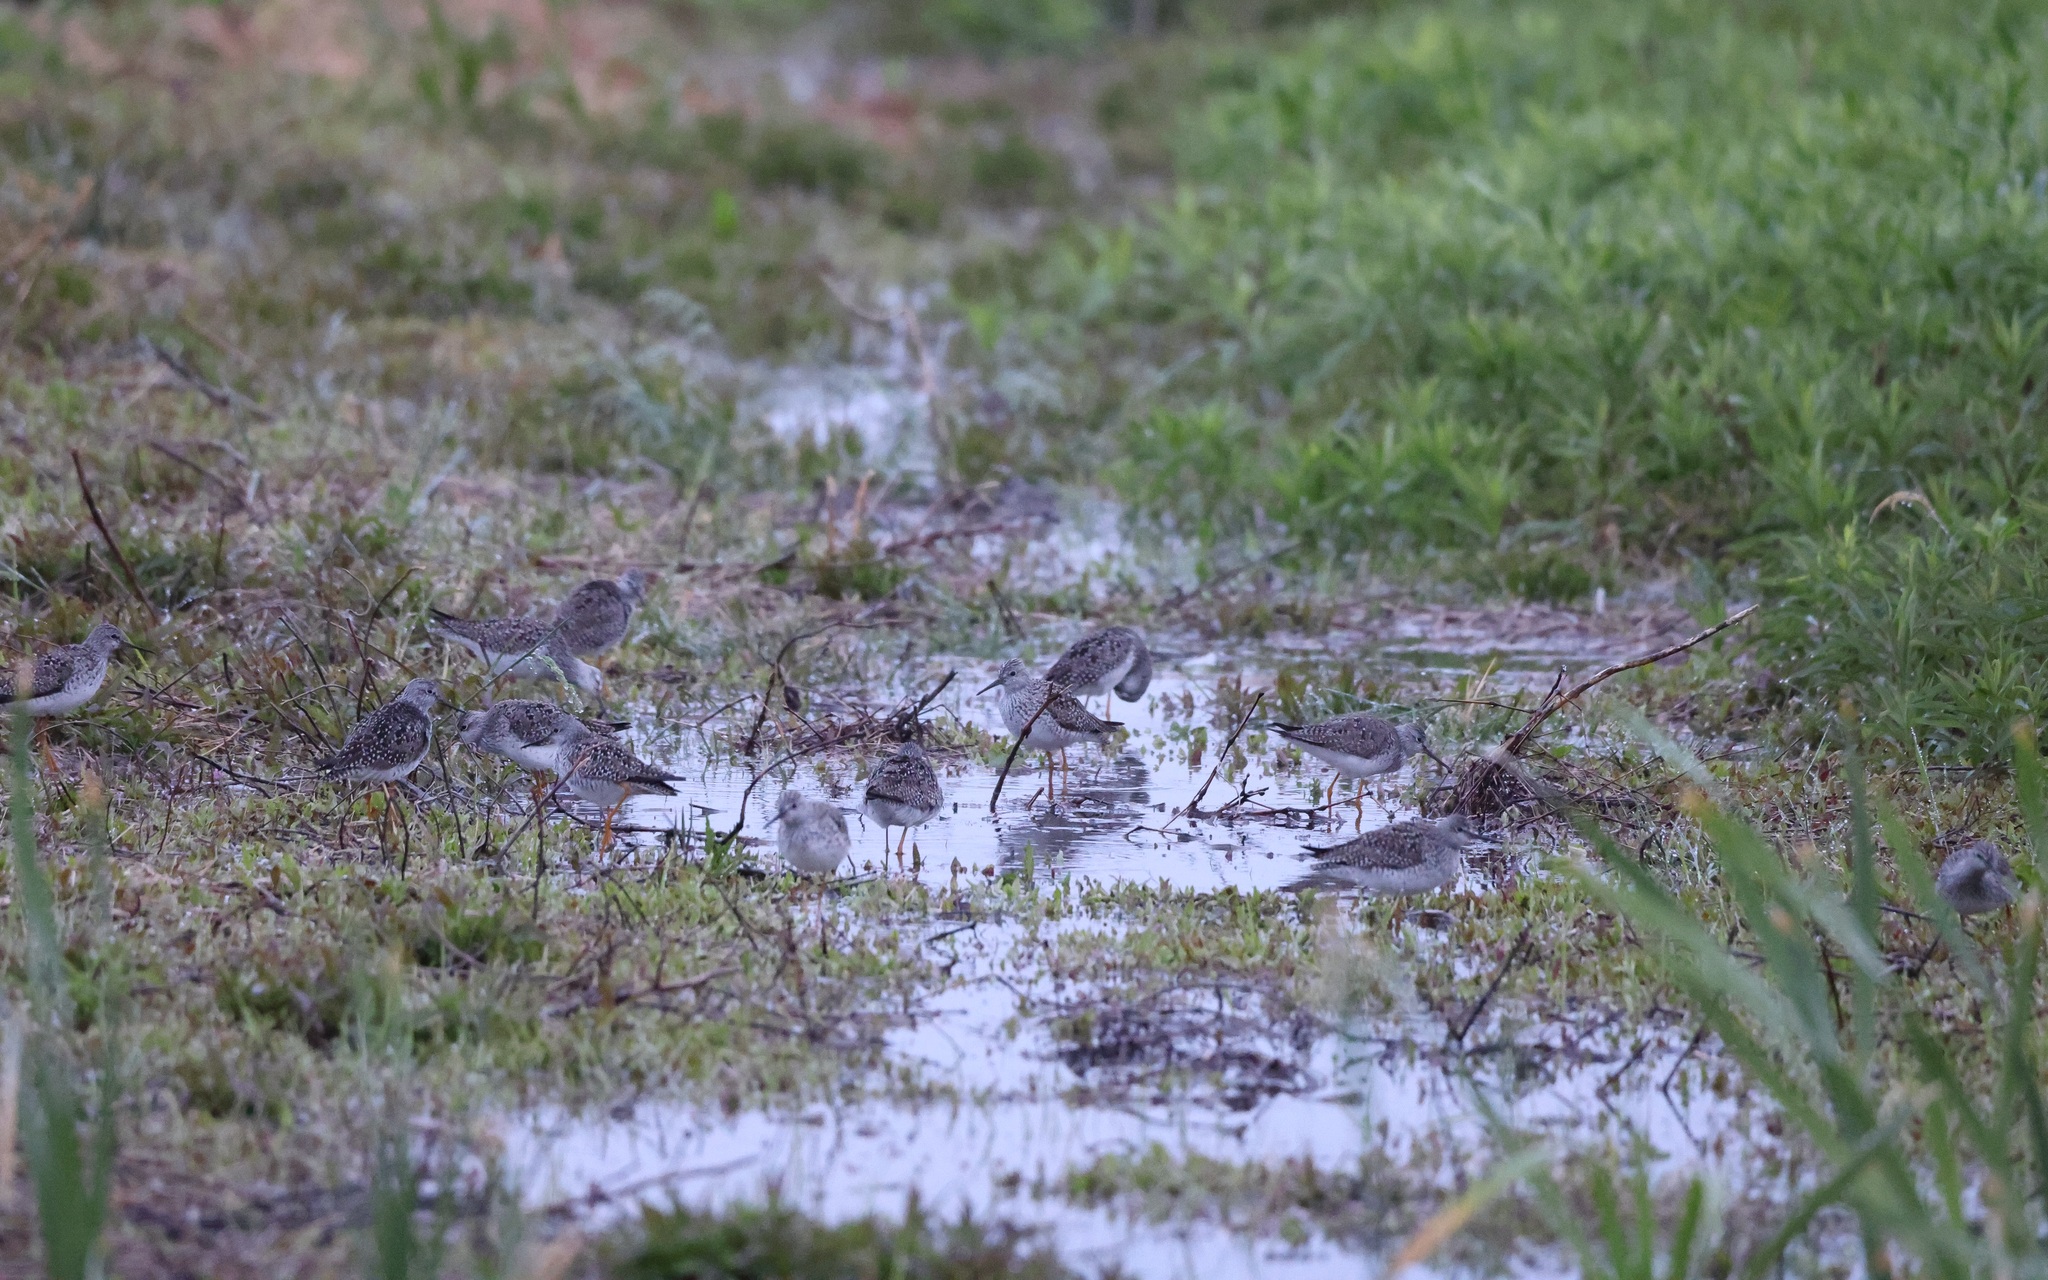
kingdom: Animalia
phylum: Chordata
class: Aves
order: Charadriiformes
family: Scolopacidae
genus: Tringa
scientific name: Tringa flavipes
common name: Lesser yellowlegs
